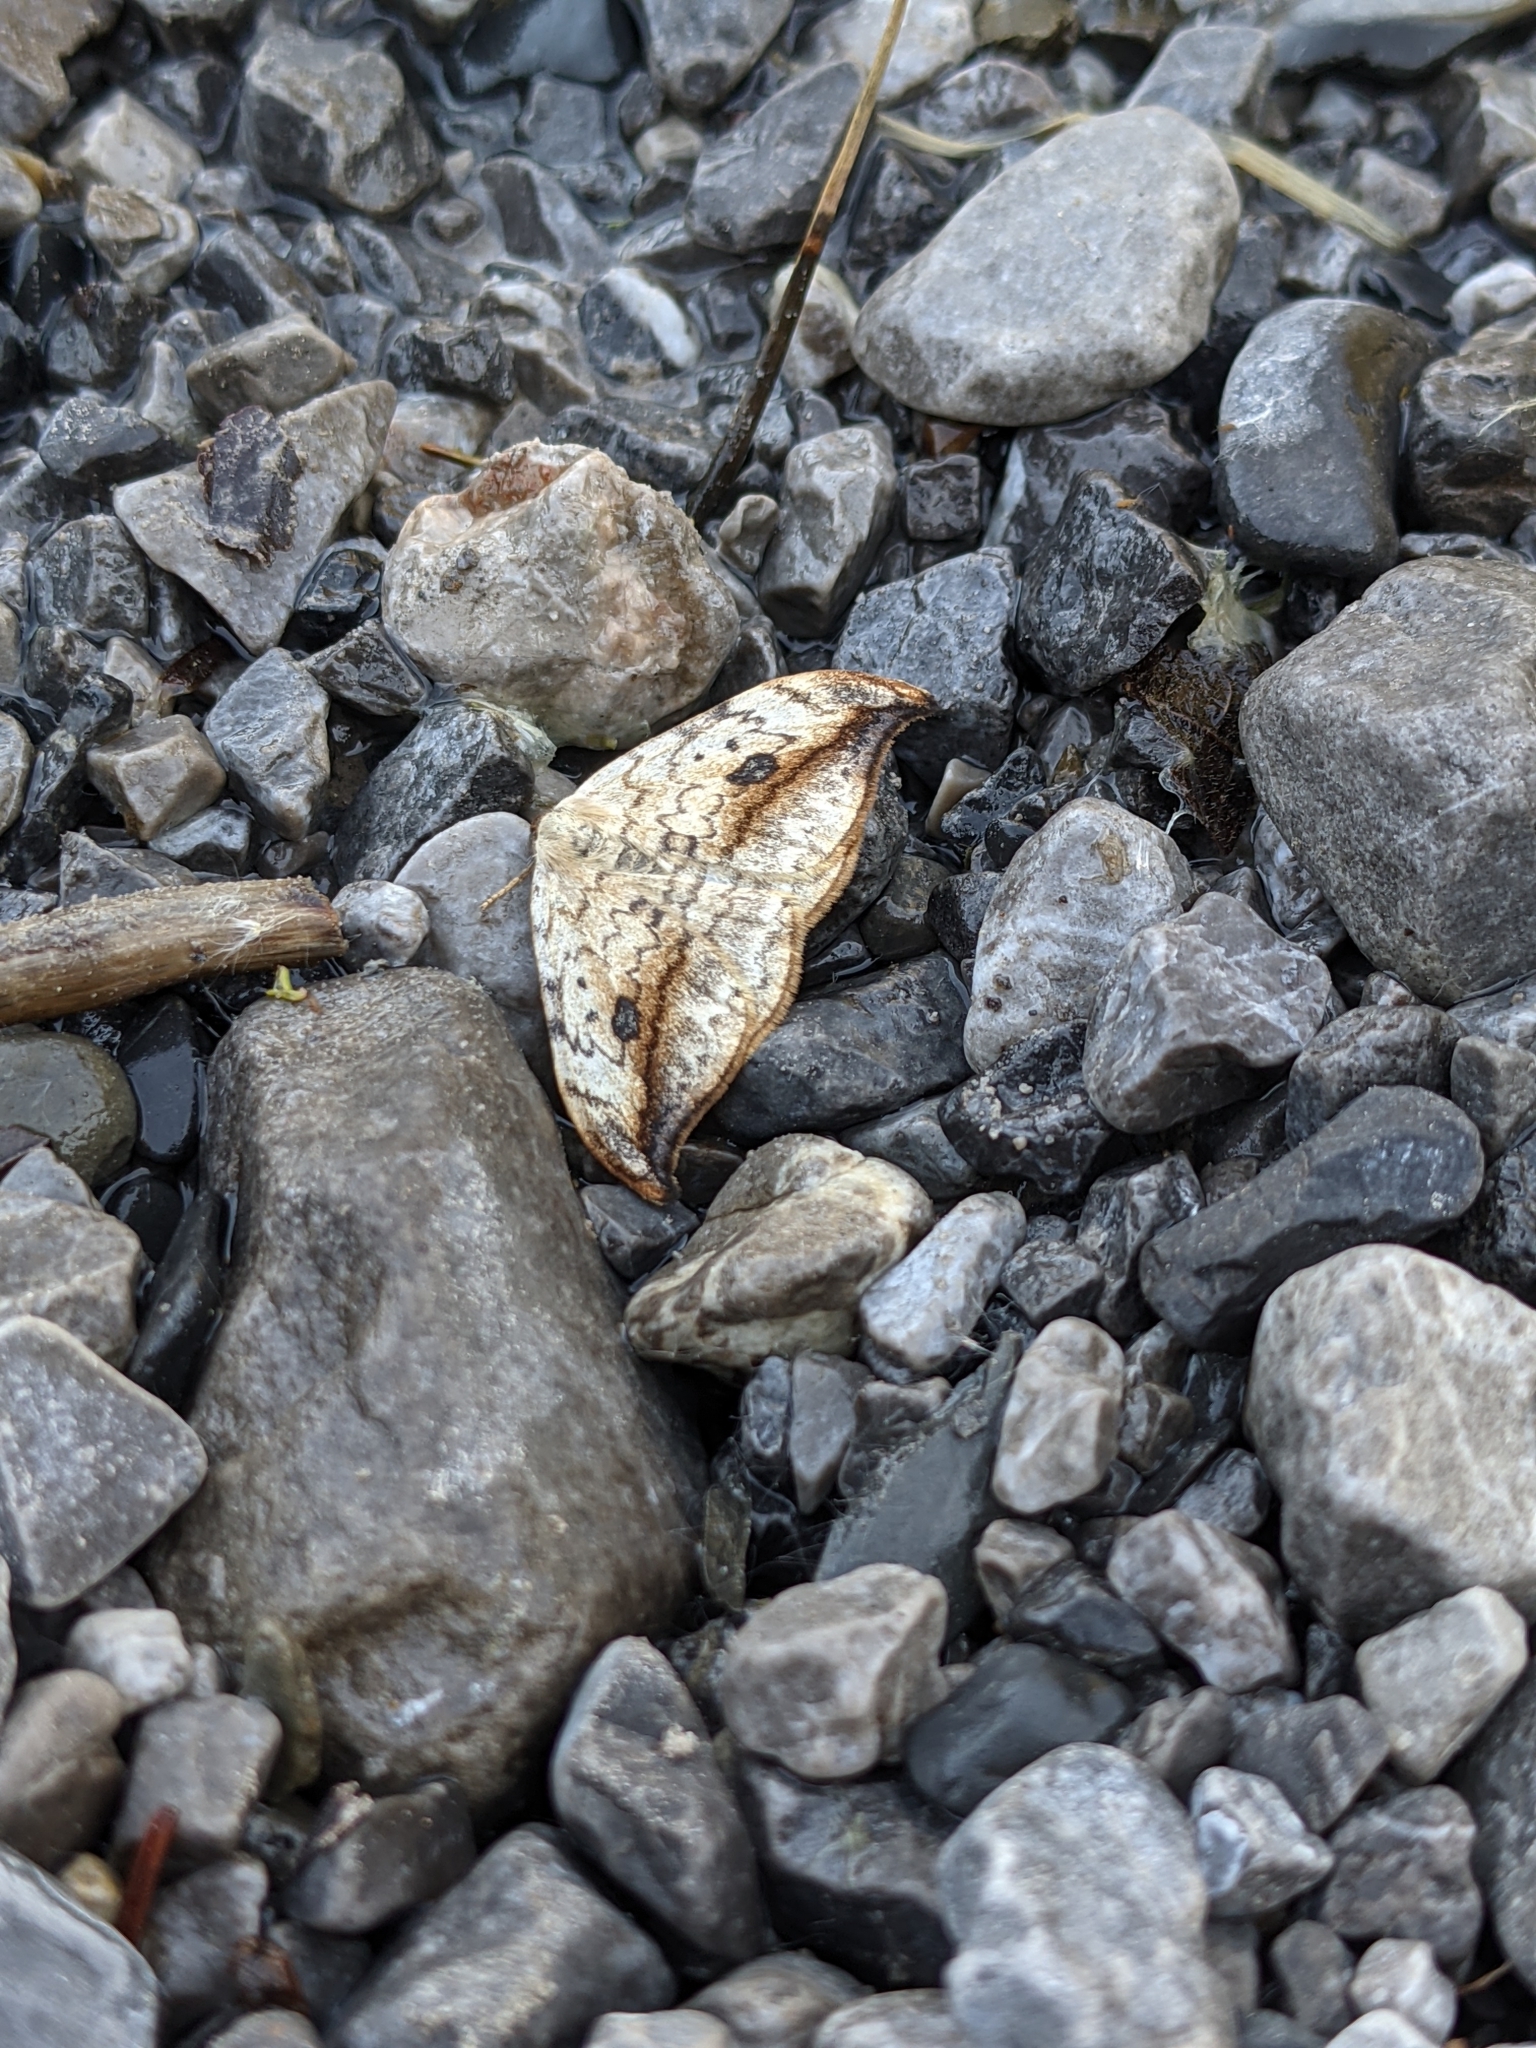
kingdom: Animalia
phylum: Arthropoda
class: Insecta
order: Lepidoptera
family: Drepanidae
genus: Drepana
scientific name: Drepana falcataria
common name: Pebble hook-tip
